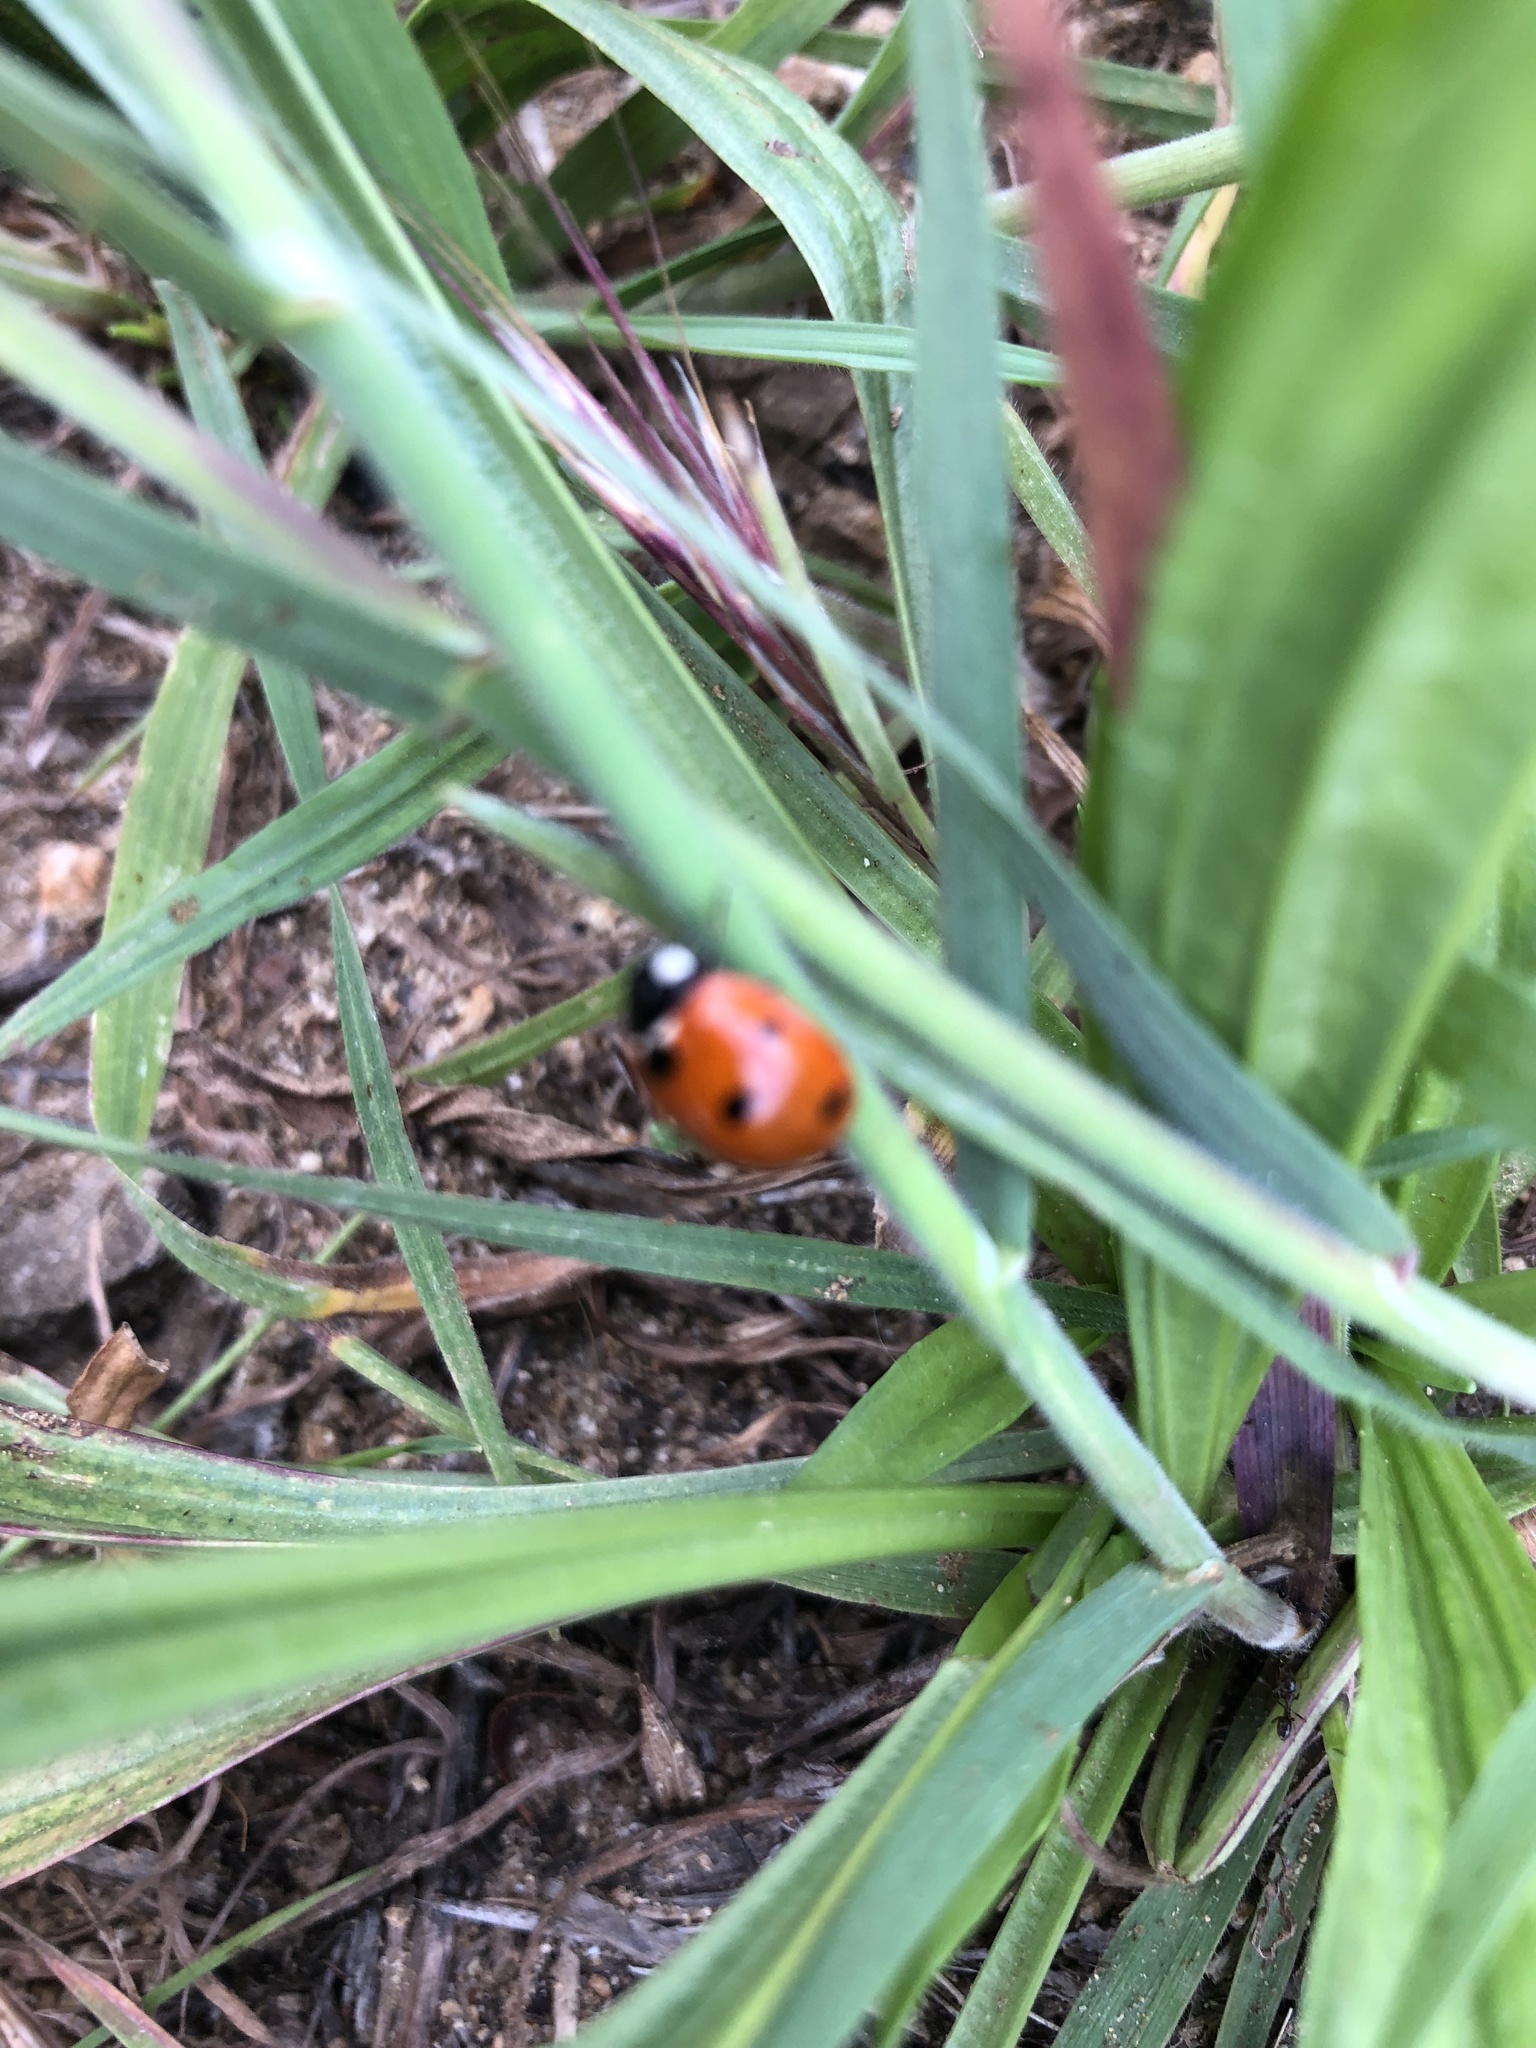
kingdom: Animalia
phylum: Arthropoda
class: Insecta
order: Coleoptera
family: Coccinellidae
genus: Coccinella
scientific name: Coccinella septempunctata
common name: Sevenspotted lady beetle
